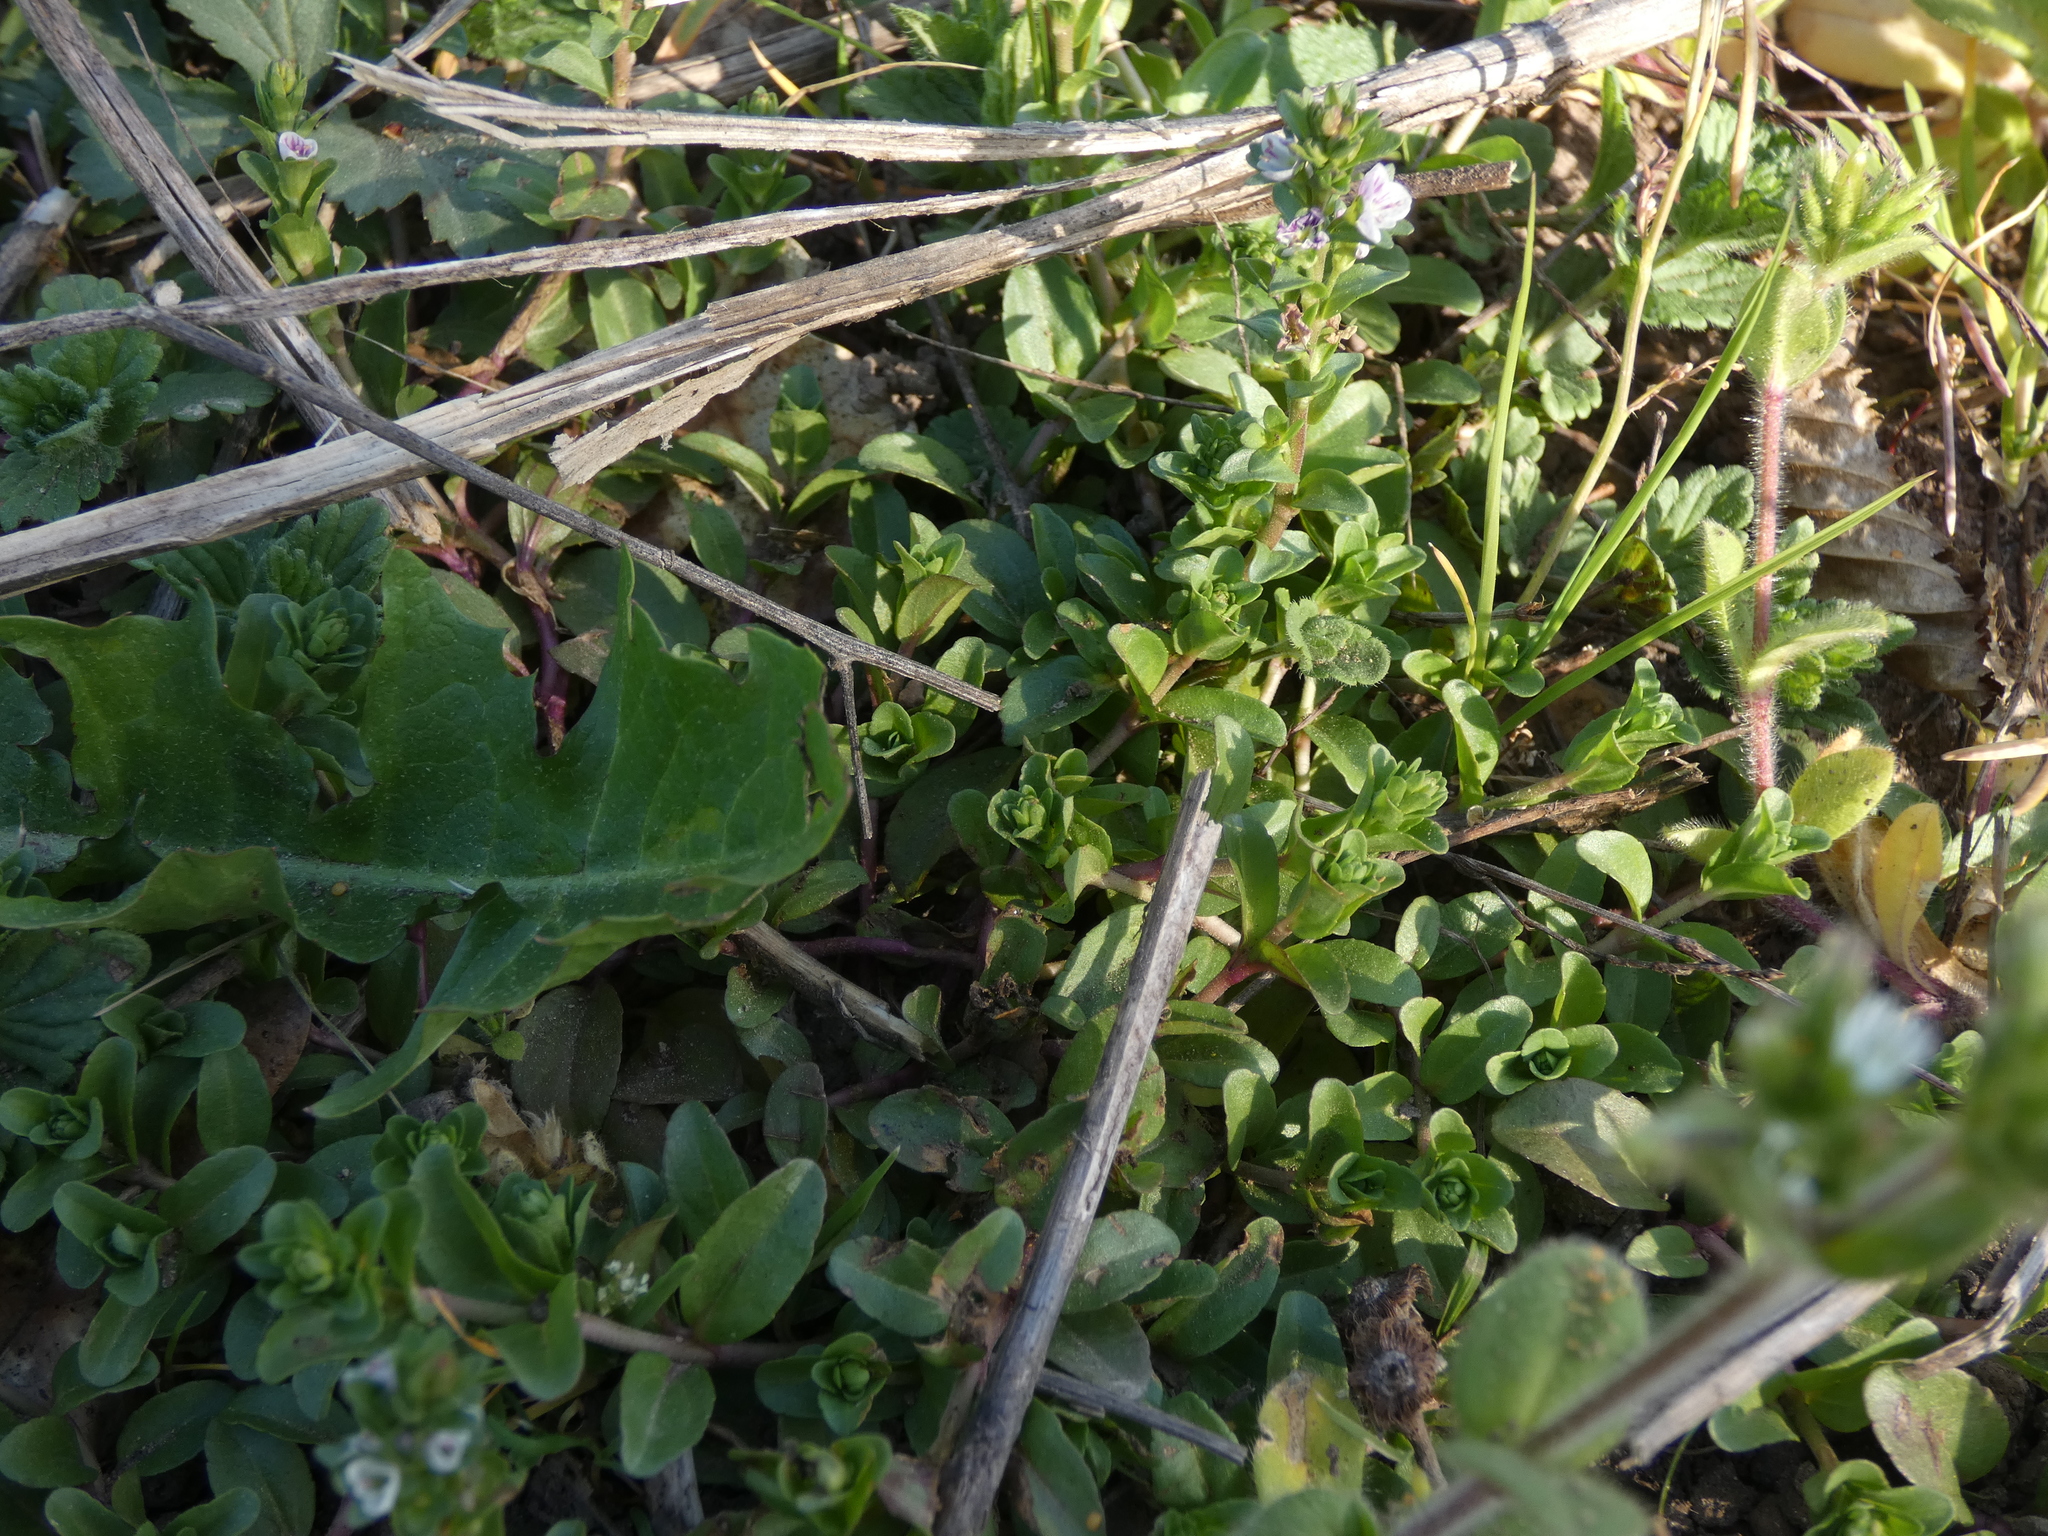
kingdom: Plantae
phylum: Tracheophyta
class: Magnoliopsida
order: Lamiales
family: Plantaginaceae
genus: Veronica
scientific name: Veronica serpyllifolia
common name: Thyme-leaved speedwell
